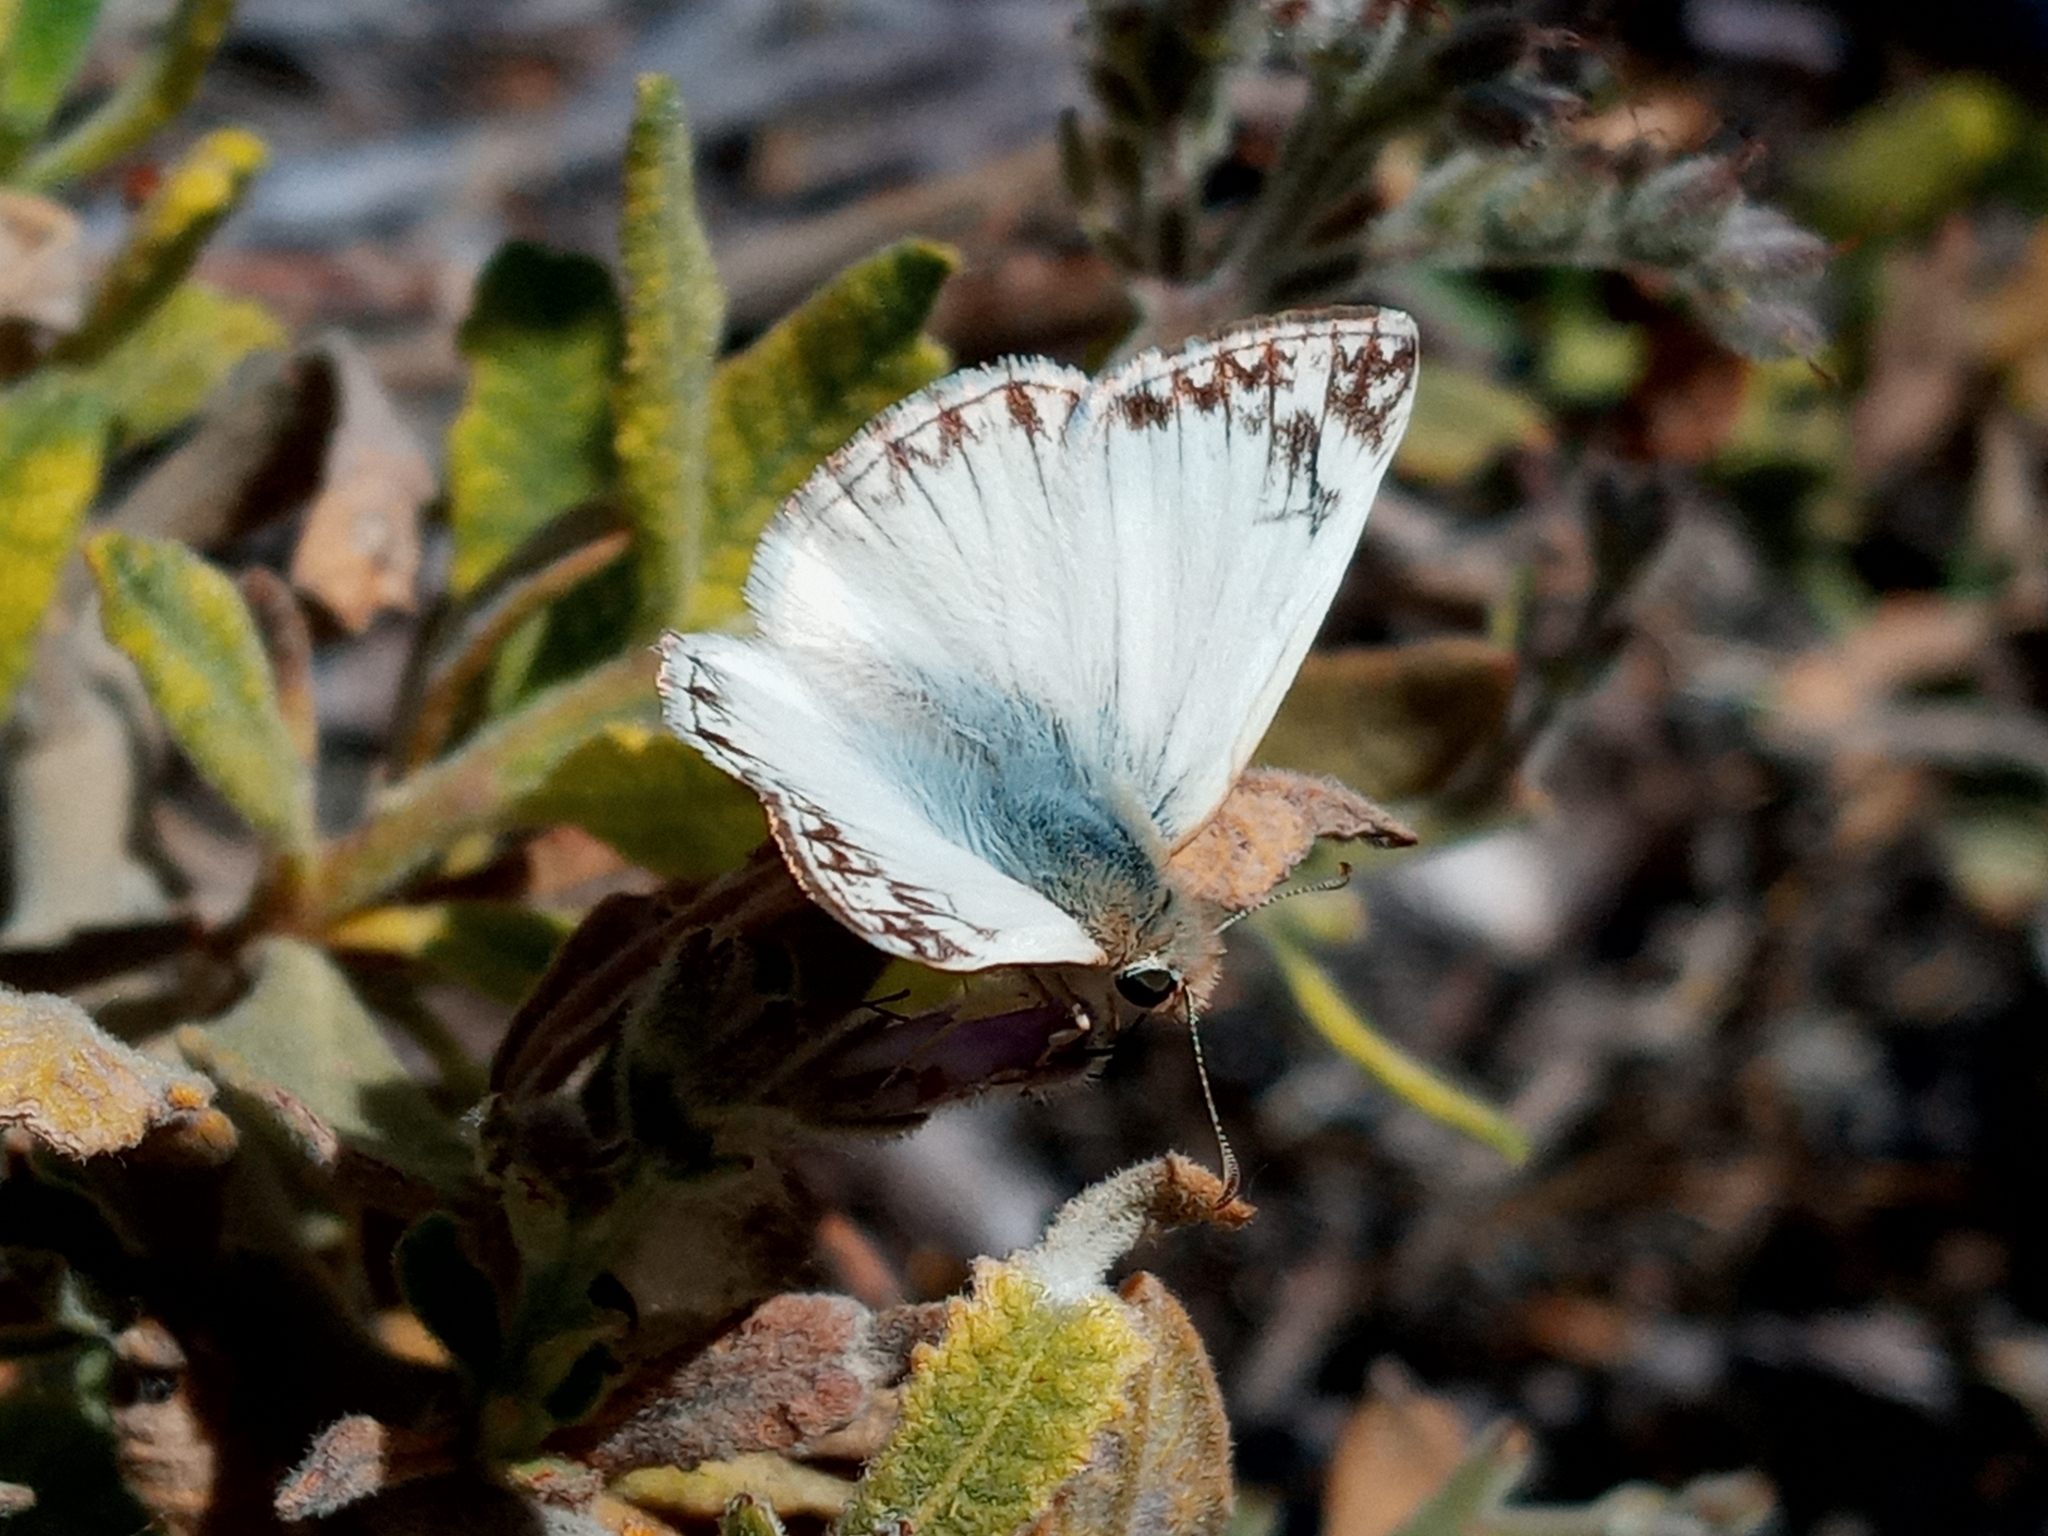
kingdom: Animalia
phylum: Arthropoda
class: Insecta
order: Lepidoptera
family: Hesperiidae
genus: Heliopetes
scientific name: Heliopetes ericetorum
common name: Northern white-skipper
